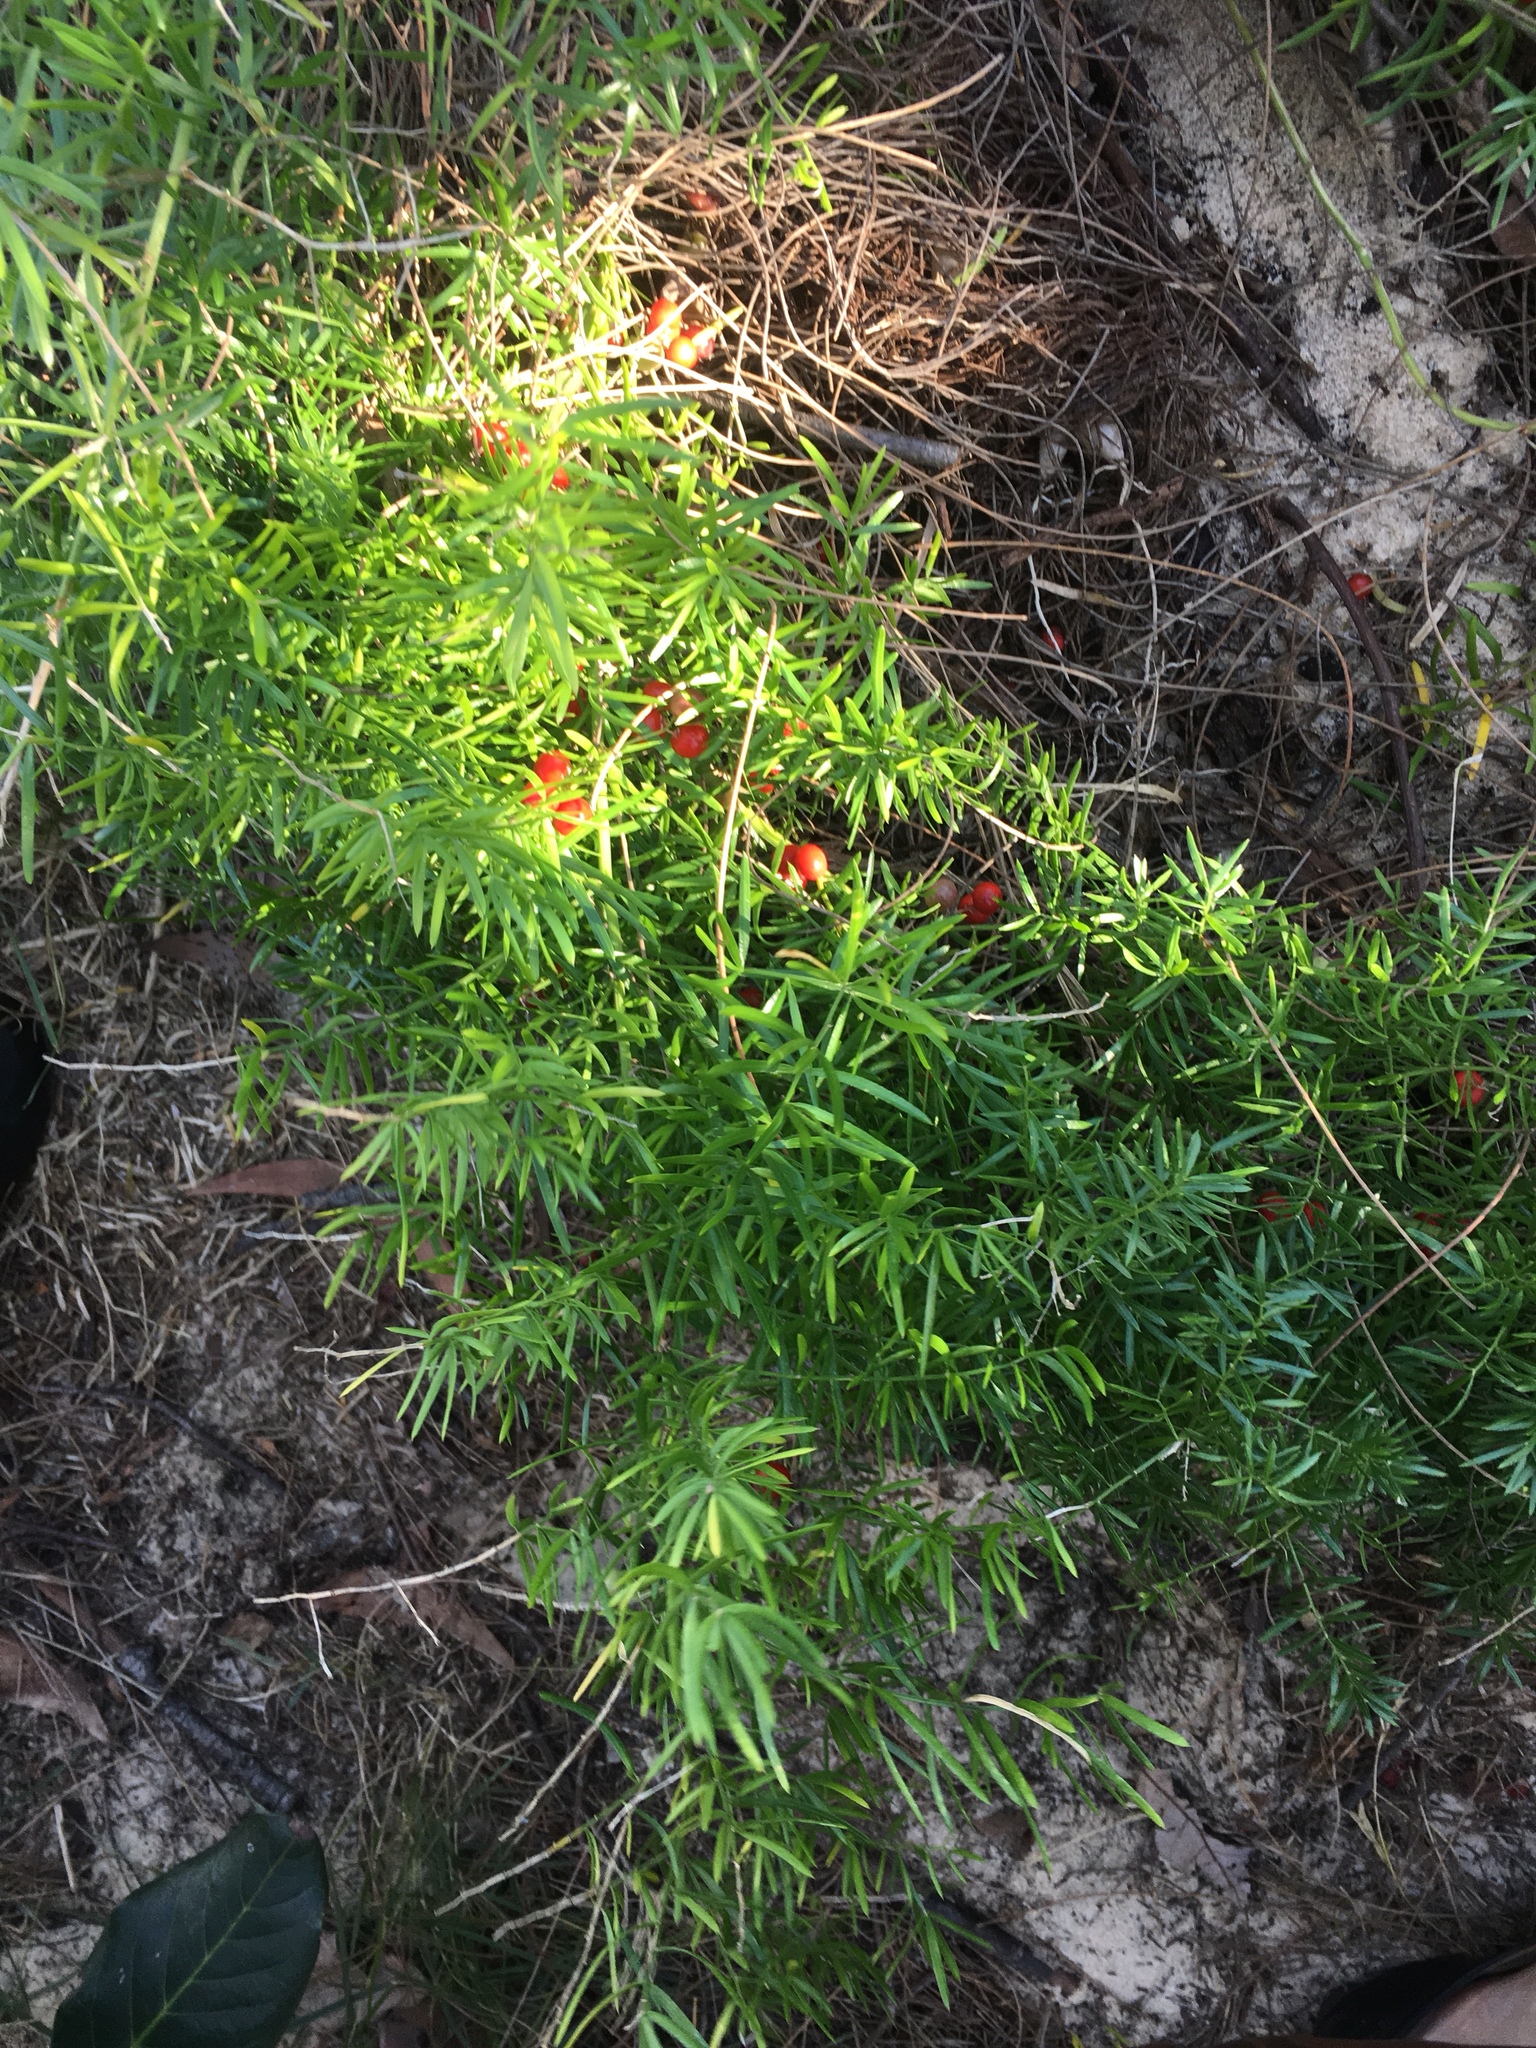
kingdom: Plantae
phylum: Tracheophyta
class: Liliopsida
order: Asparagales
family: Asparagaceae
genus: Asparagus
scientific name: Asparagus aethiopicus
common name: Sprenger's asparagus fern
